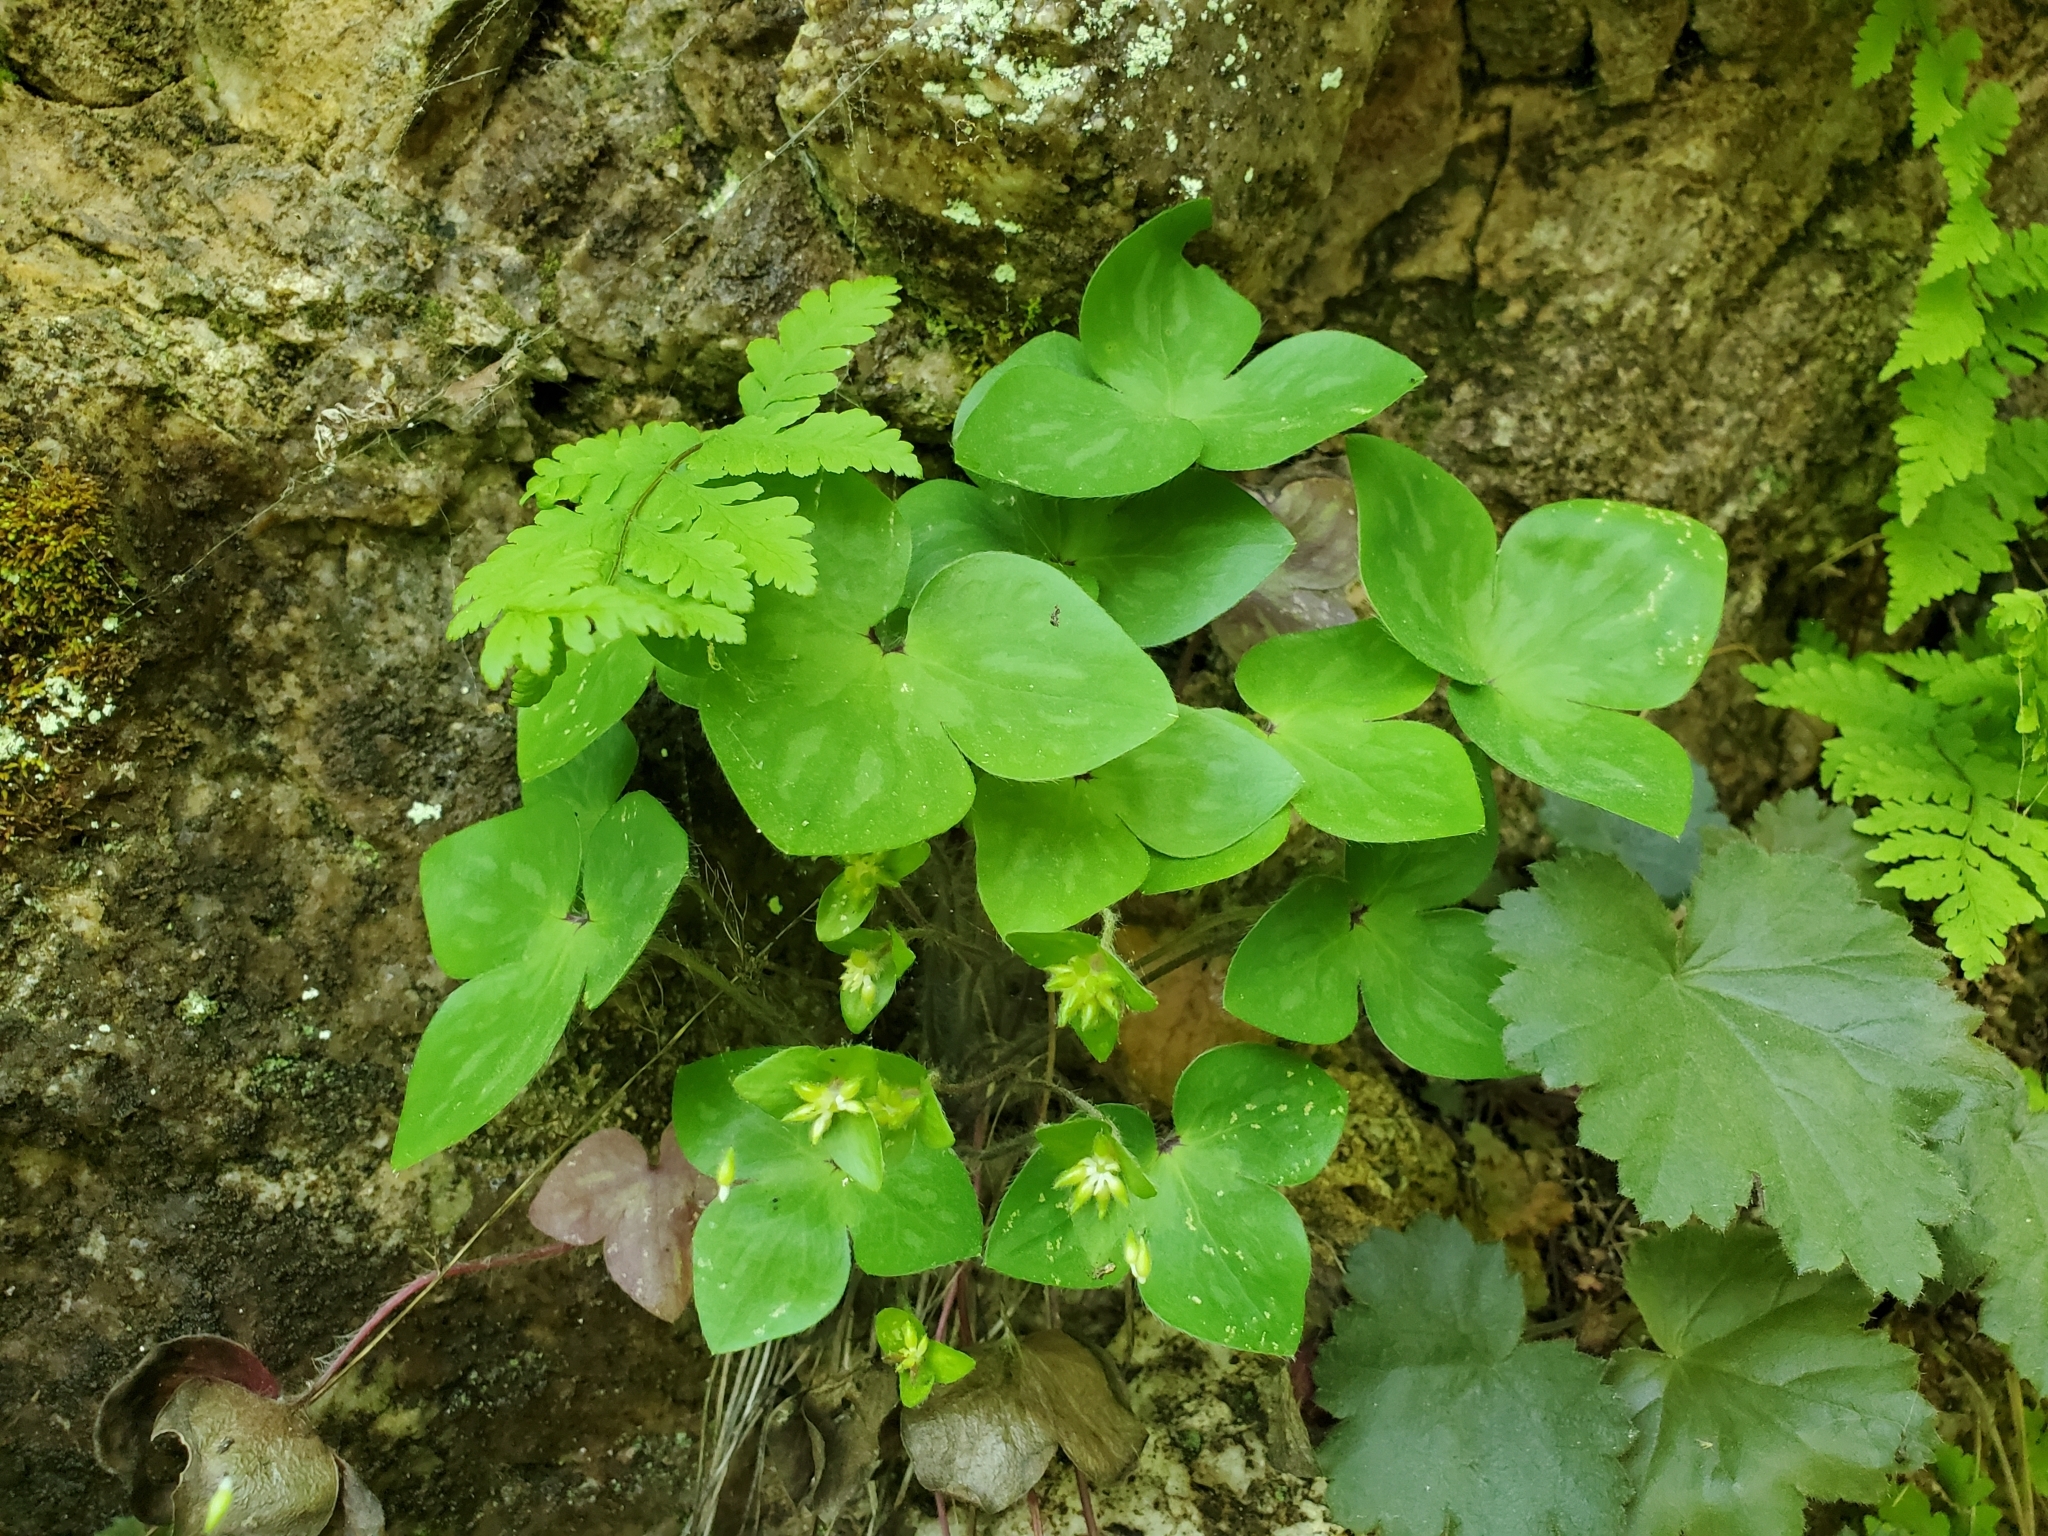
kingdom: Plantae
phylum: Tracheophyta
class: Magnoliopsida
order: Ranunculales
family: Ranunculaceae
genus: Hepatica
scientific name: Hepatica acutiloba
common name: Sharp-lobed hepatica
